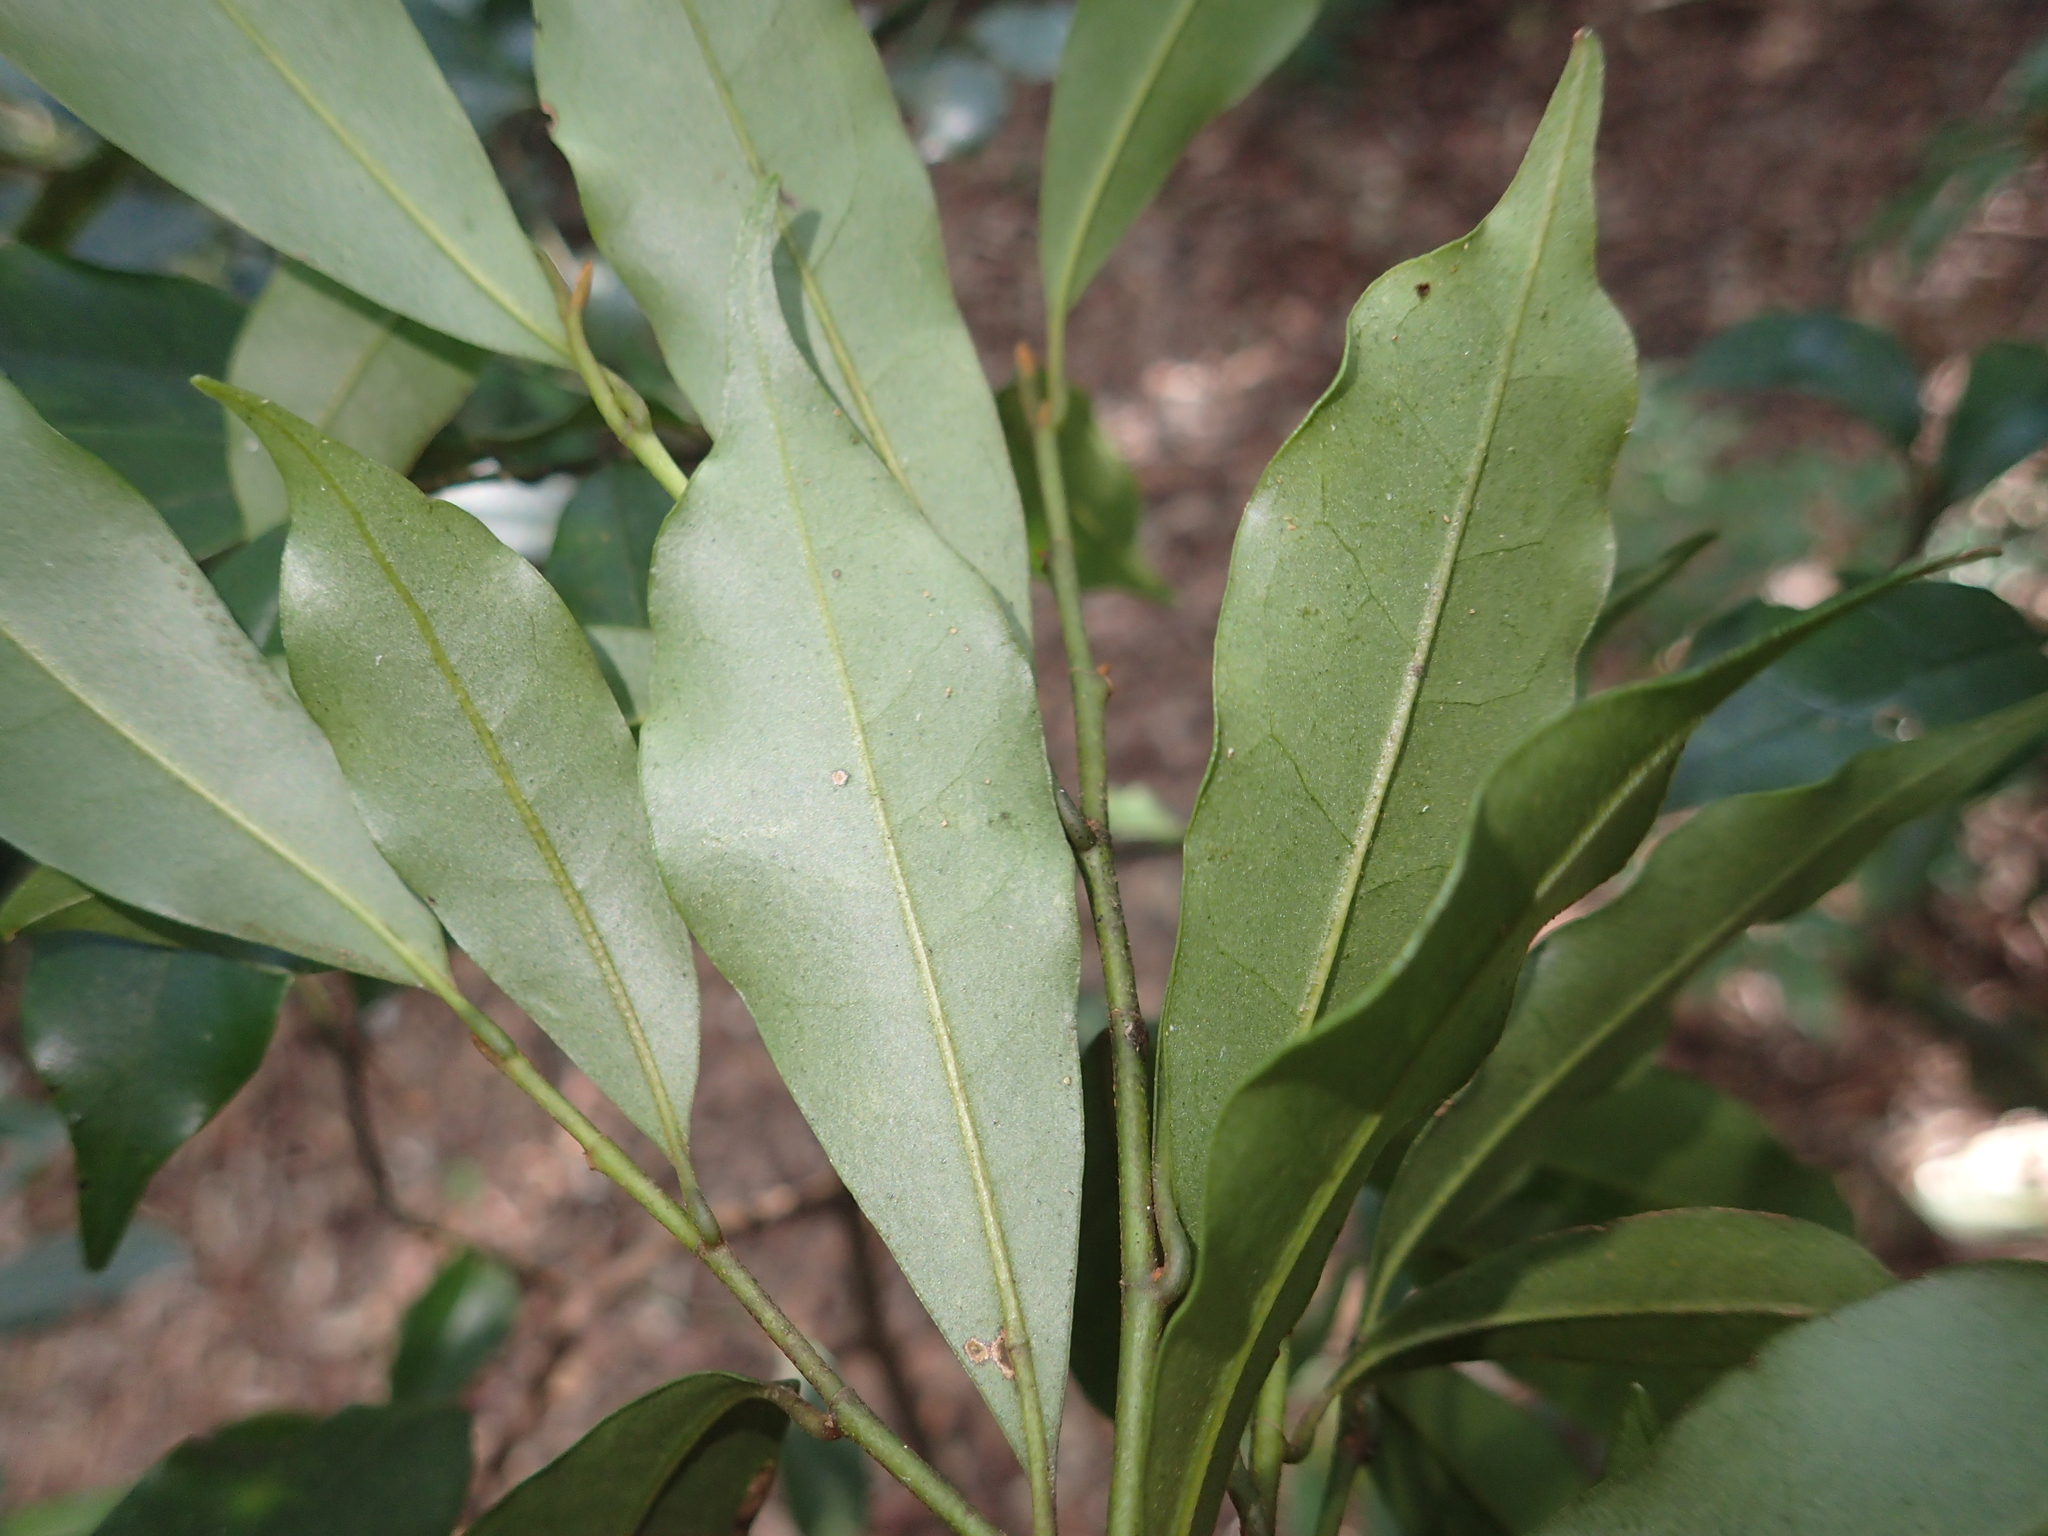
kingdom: Plantae
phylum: Tracheophyta
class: Magnoliopsida
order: Magnoliales
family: Magnoliaceae
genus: Magnolia
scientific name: Magnolia compressa
